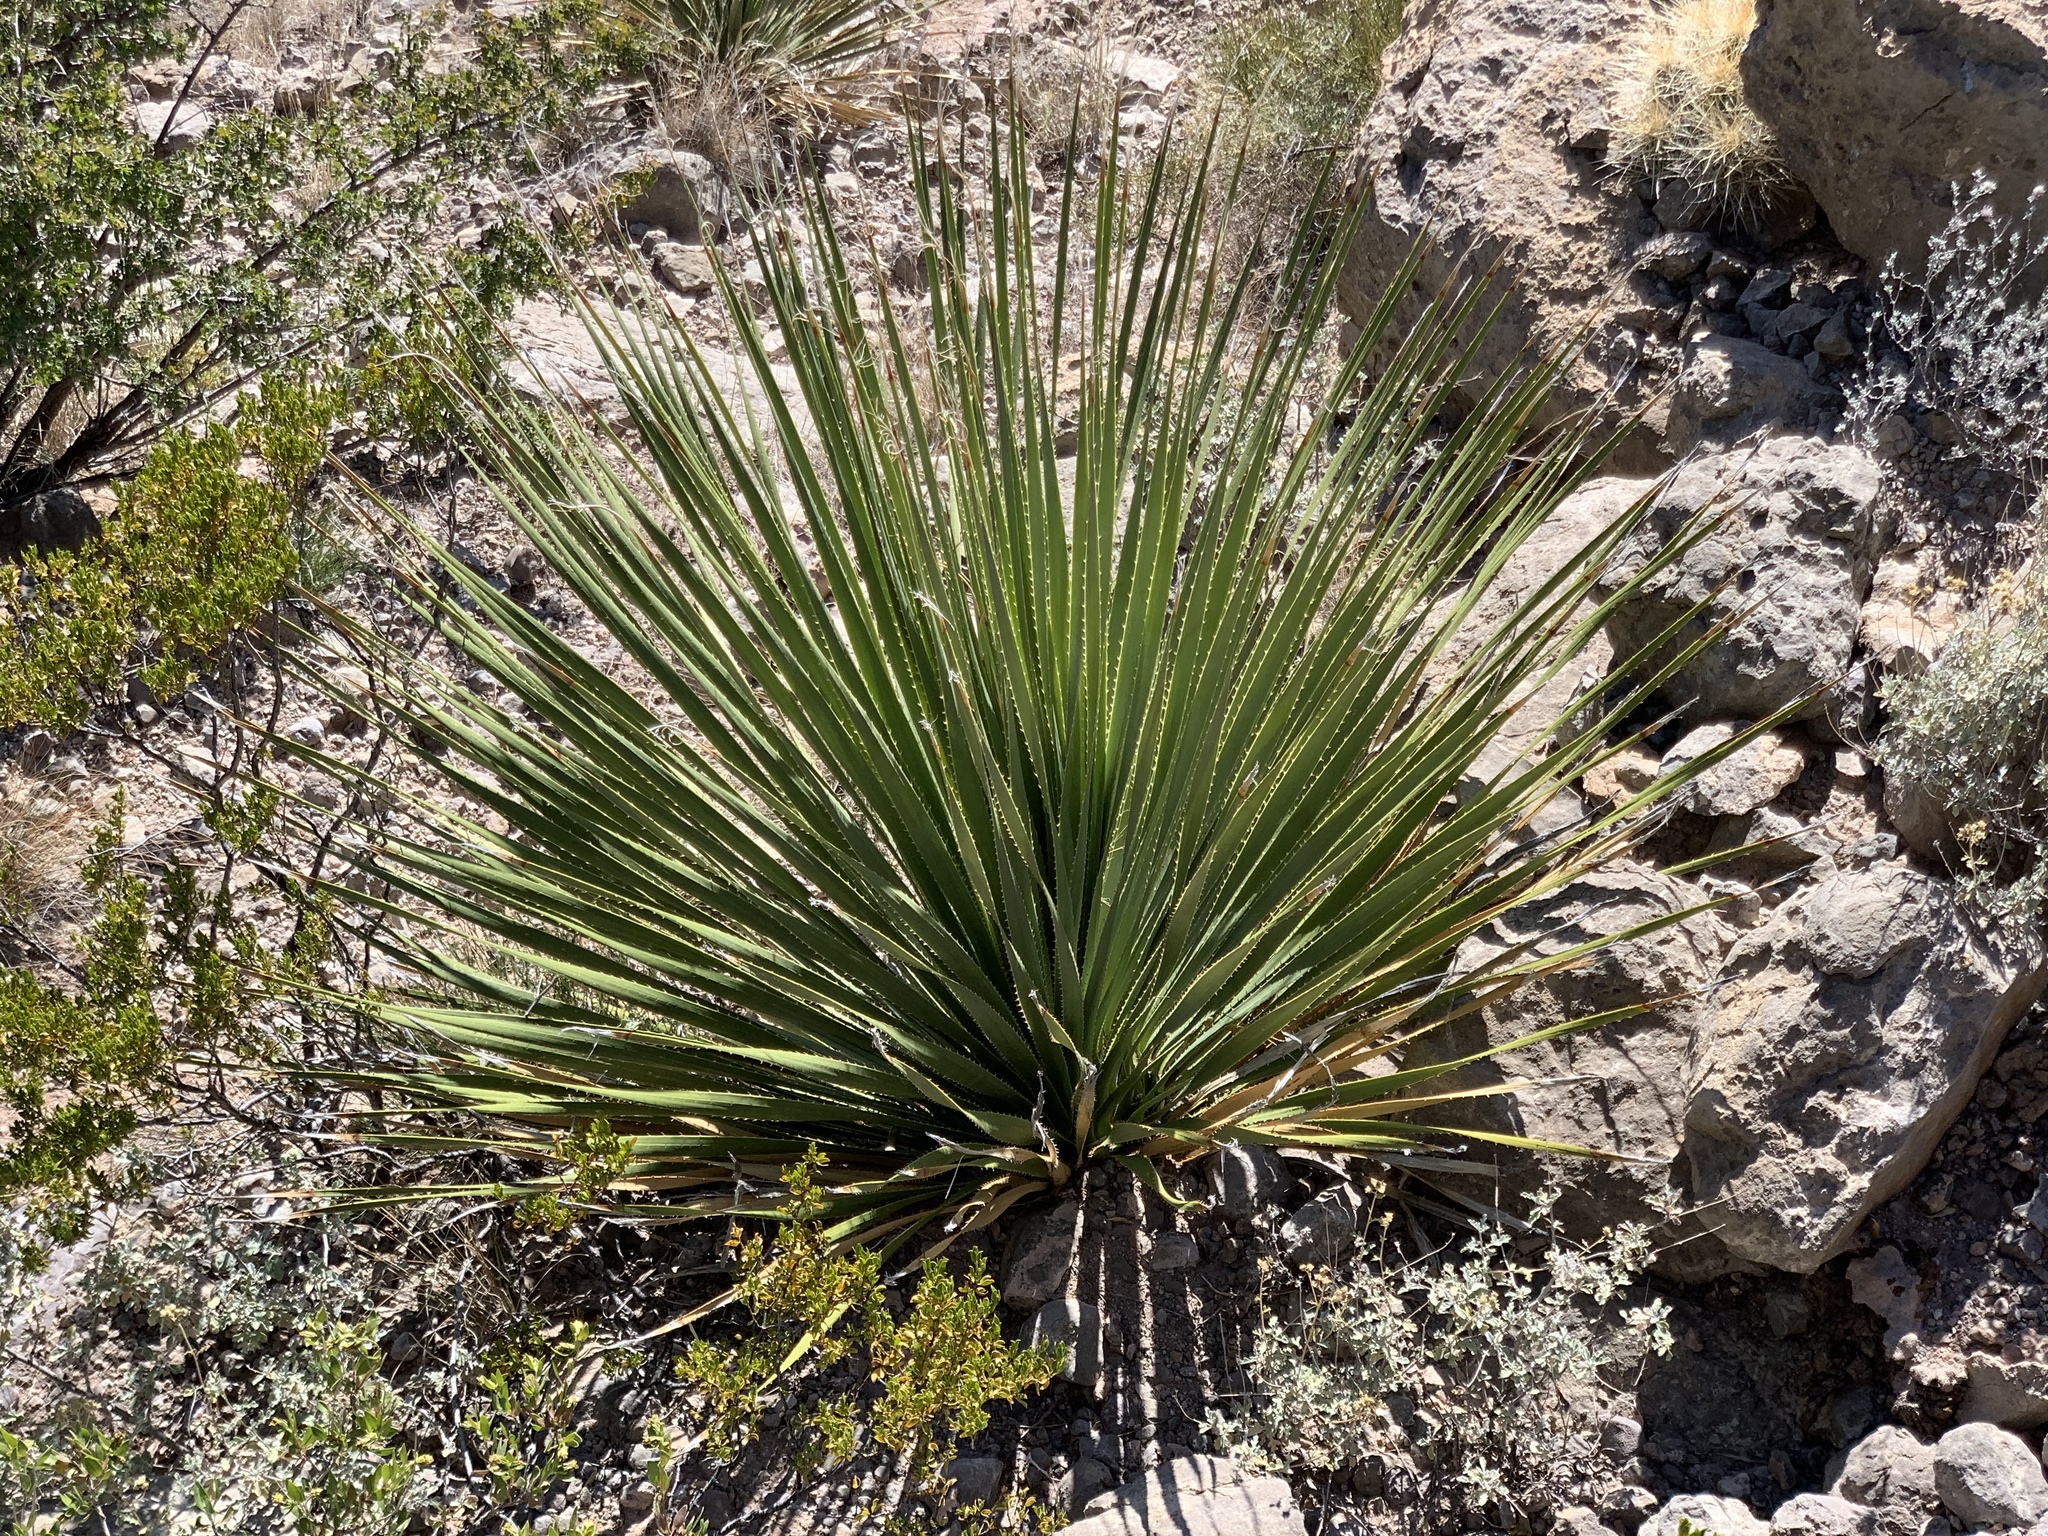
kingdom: Plantae
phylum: Tracheophyta
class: Liliopsida
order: Asparagales
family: Asparagaceae
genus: Dasylirion
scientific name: Dasylirion wheeleri
